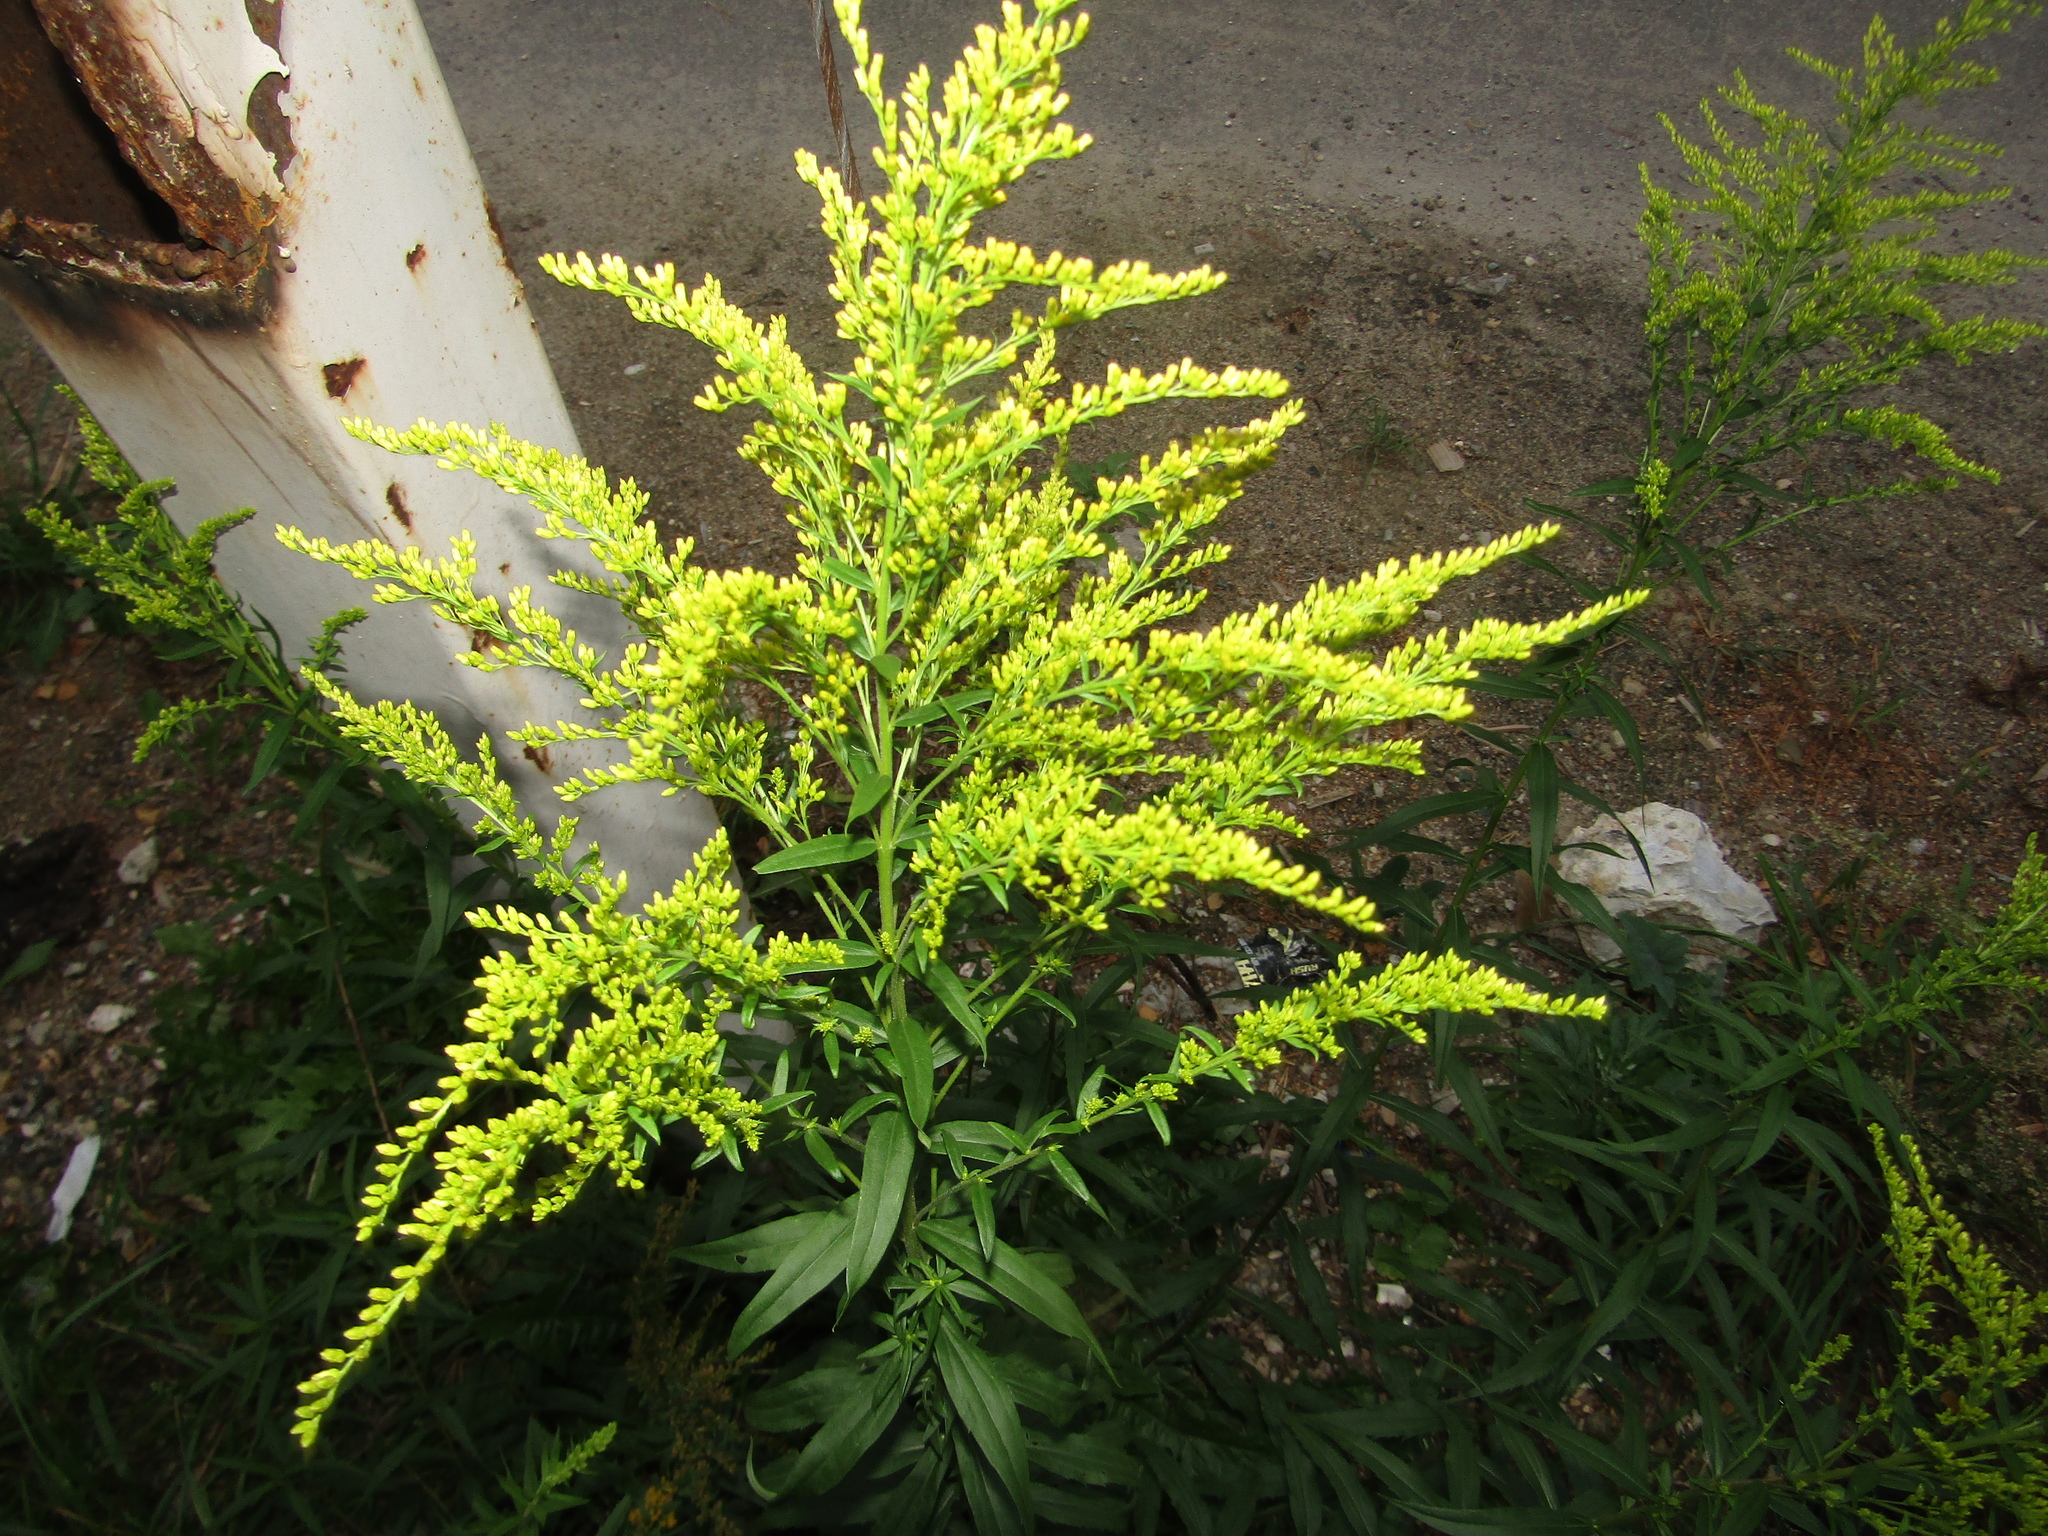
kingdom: Plantae
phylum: Tracheophyta
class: Magnoliopsida
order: Asterales
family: Asteraceae
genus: Solidago
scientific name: Solidago canadensis
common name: Canada goldenrod
